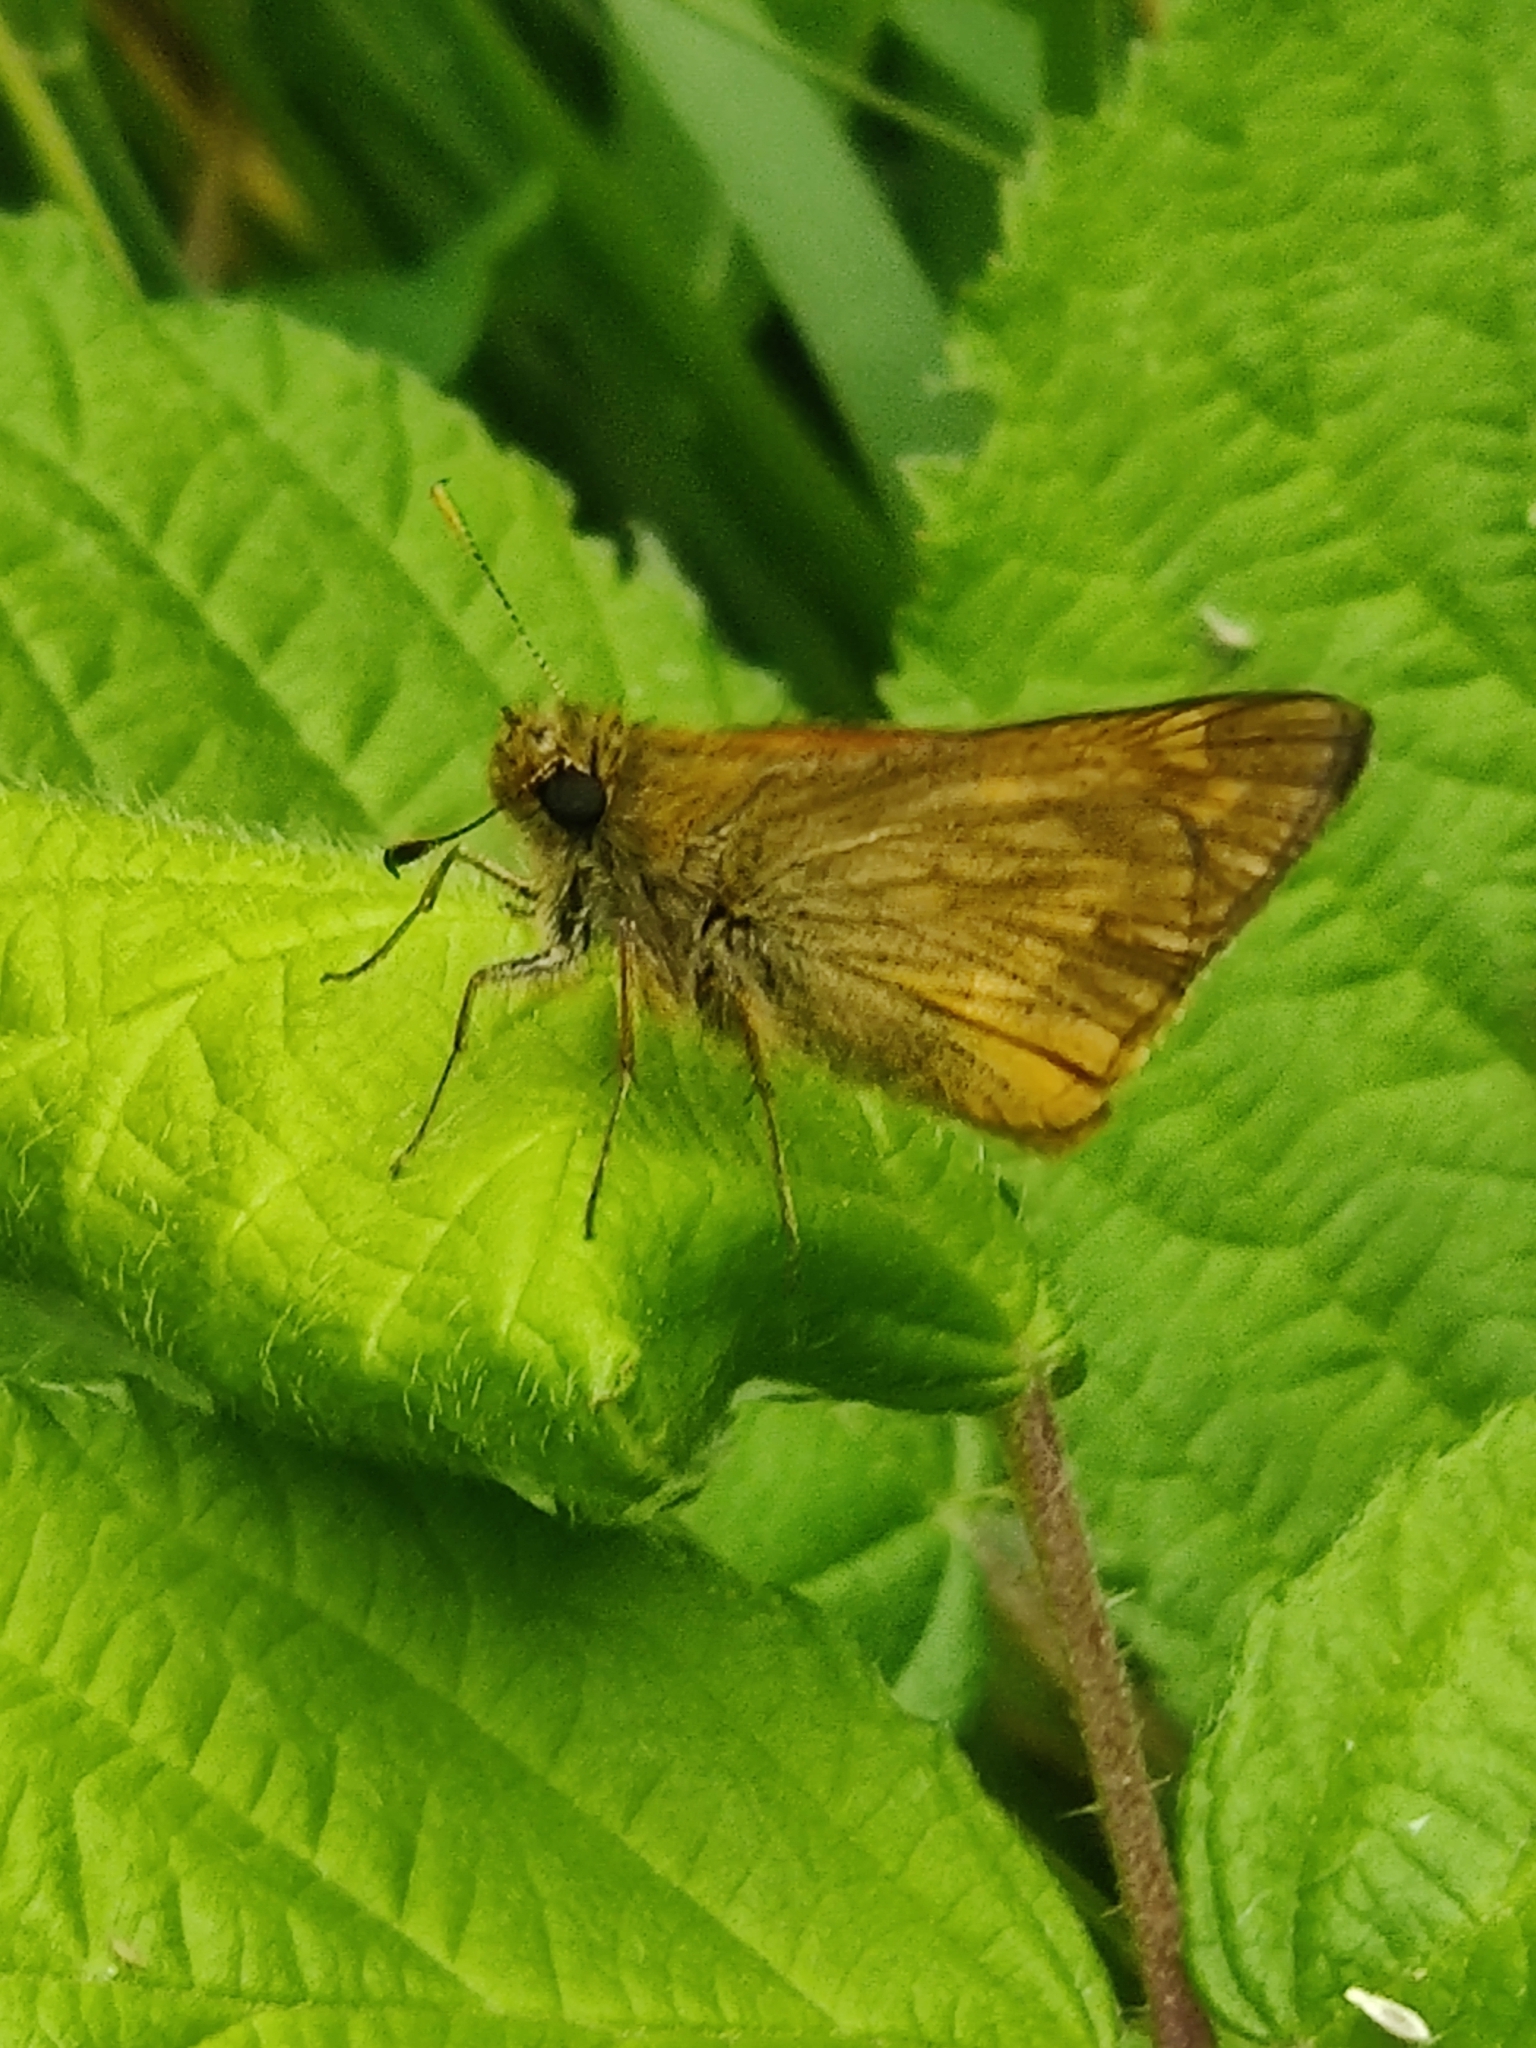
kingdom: Animalia
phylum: Arthropoda
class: Insecta
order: Lepidoptera
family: Hesperiidae
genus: Ochlodes
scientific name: Ochlodes venata
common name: Large skipper
